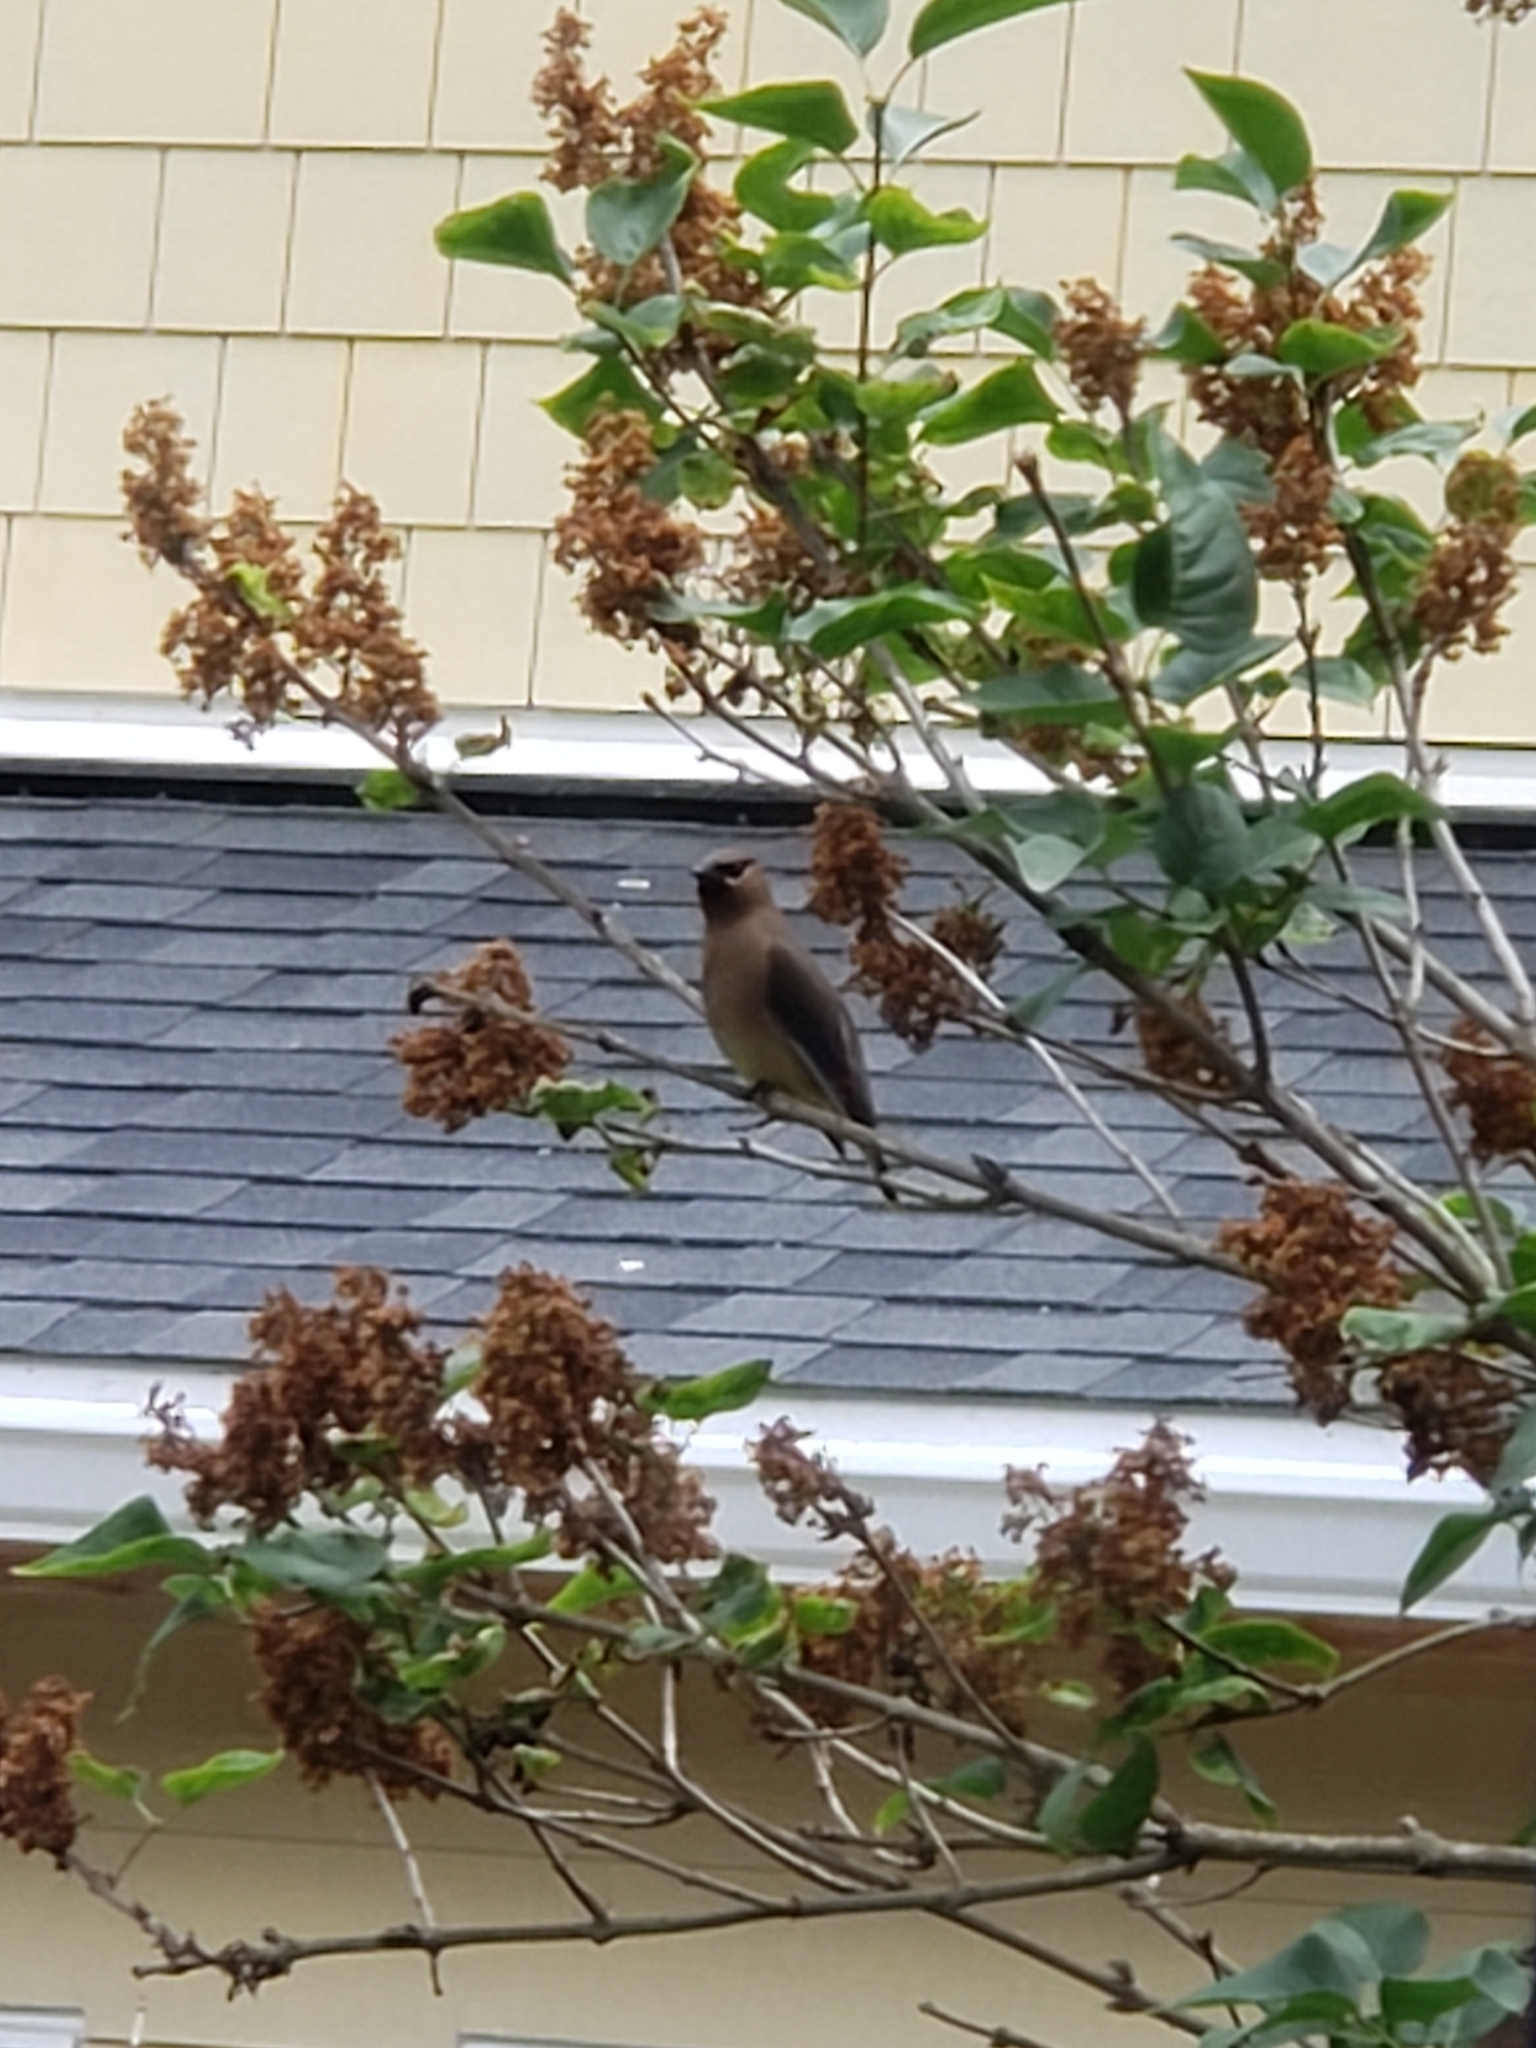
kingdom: Animalia
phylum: Chordata
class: Aves
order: Passeriformes
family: Bombycillidae
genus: Bombycilla
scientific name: Bombycilla cedrorum
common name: Cedar waxwing
